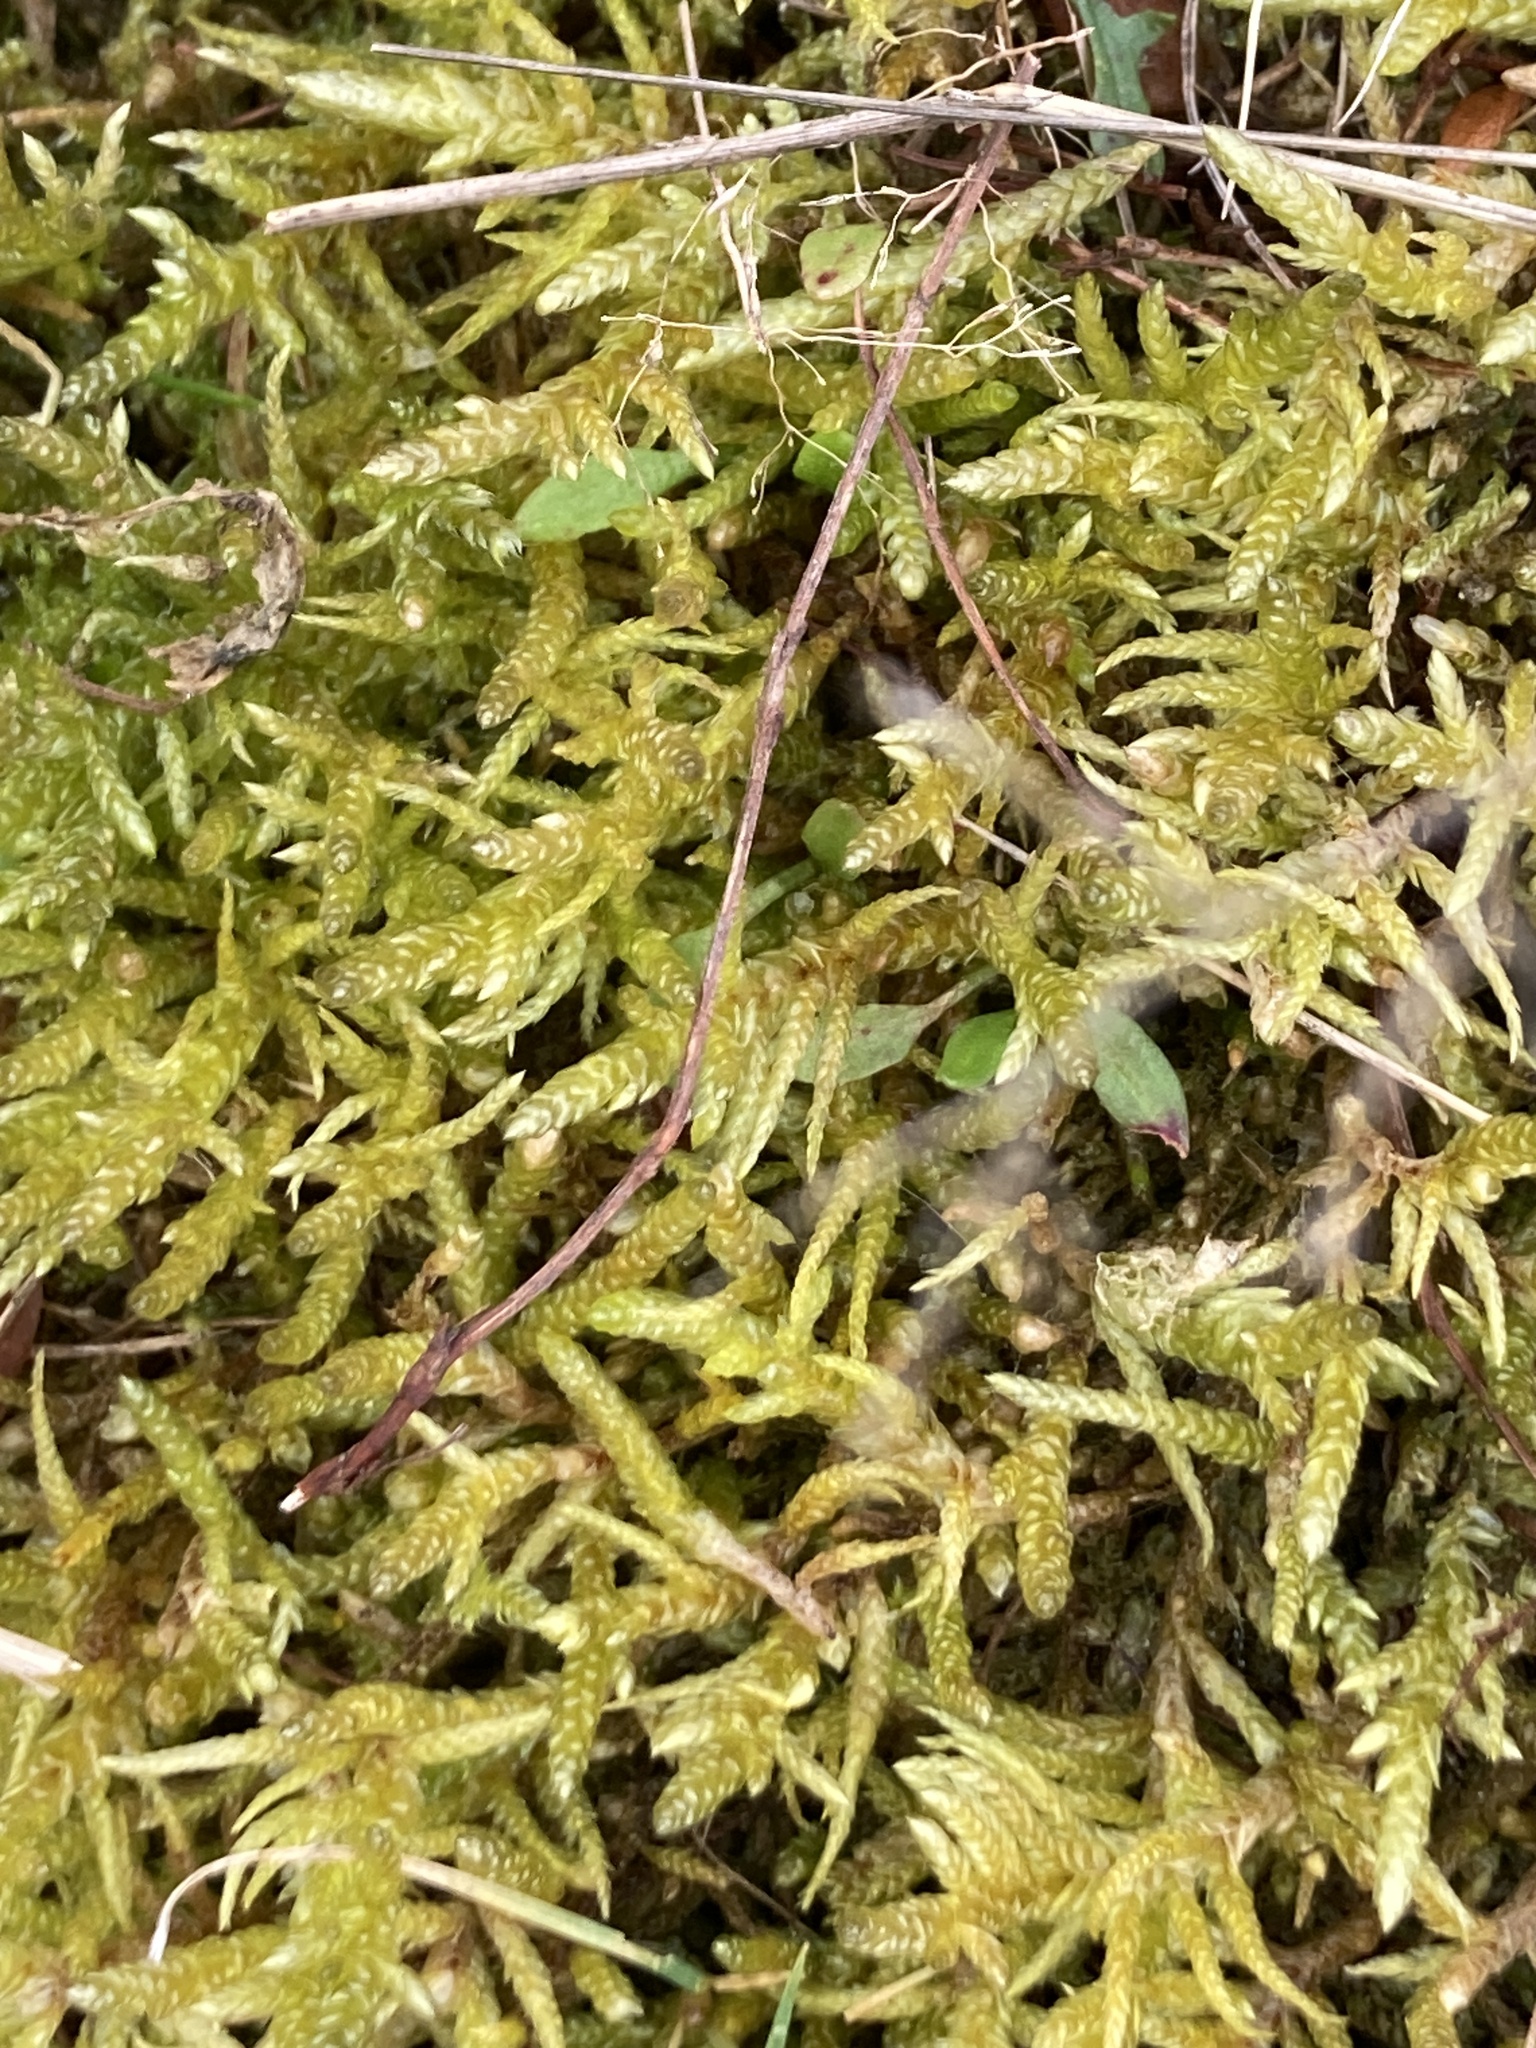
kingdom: Plantae
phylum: Bryophyta
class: Bryopsida
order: Hypnales
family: Brachytheciaceae
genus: Pseudoscleropodium
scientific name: Pseudoscleropodium purum
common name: Neat feather-moss
